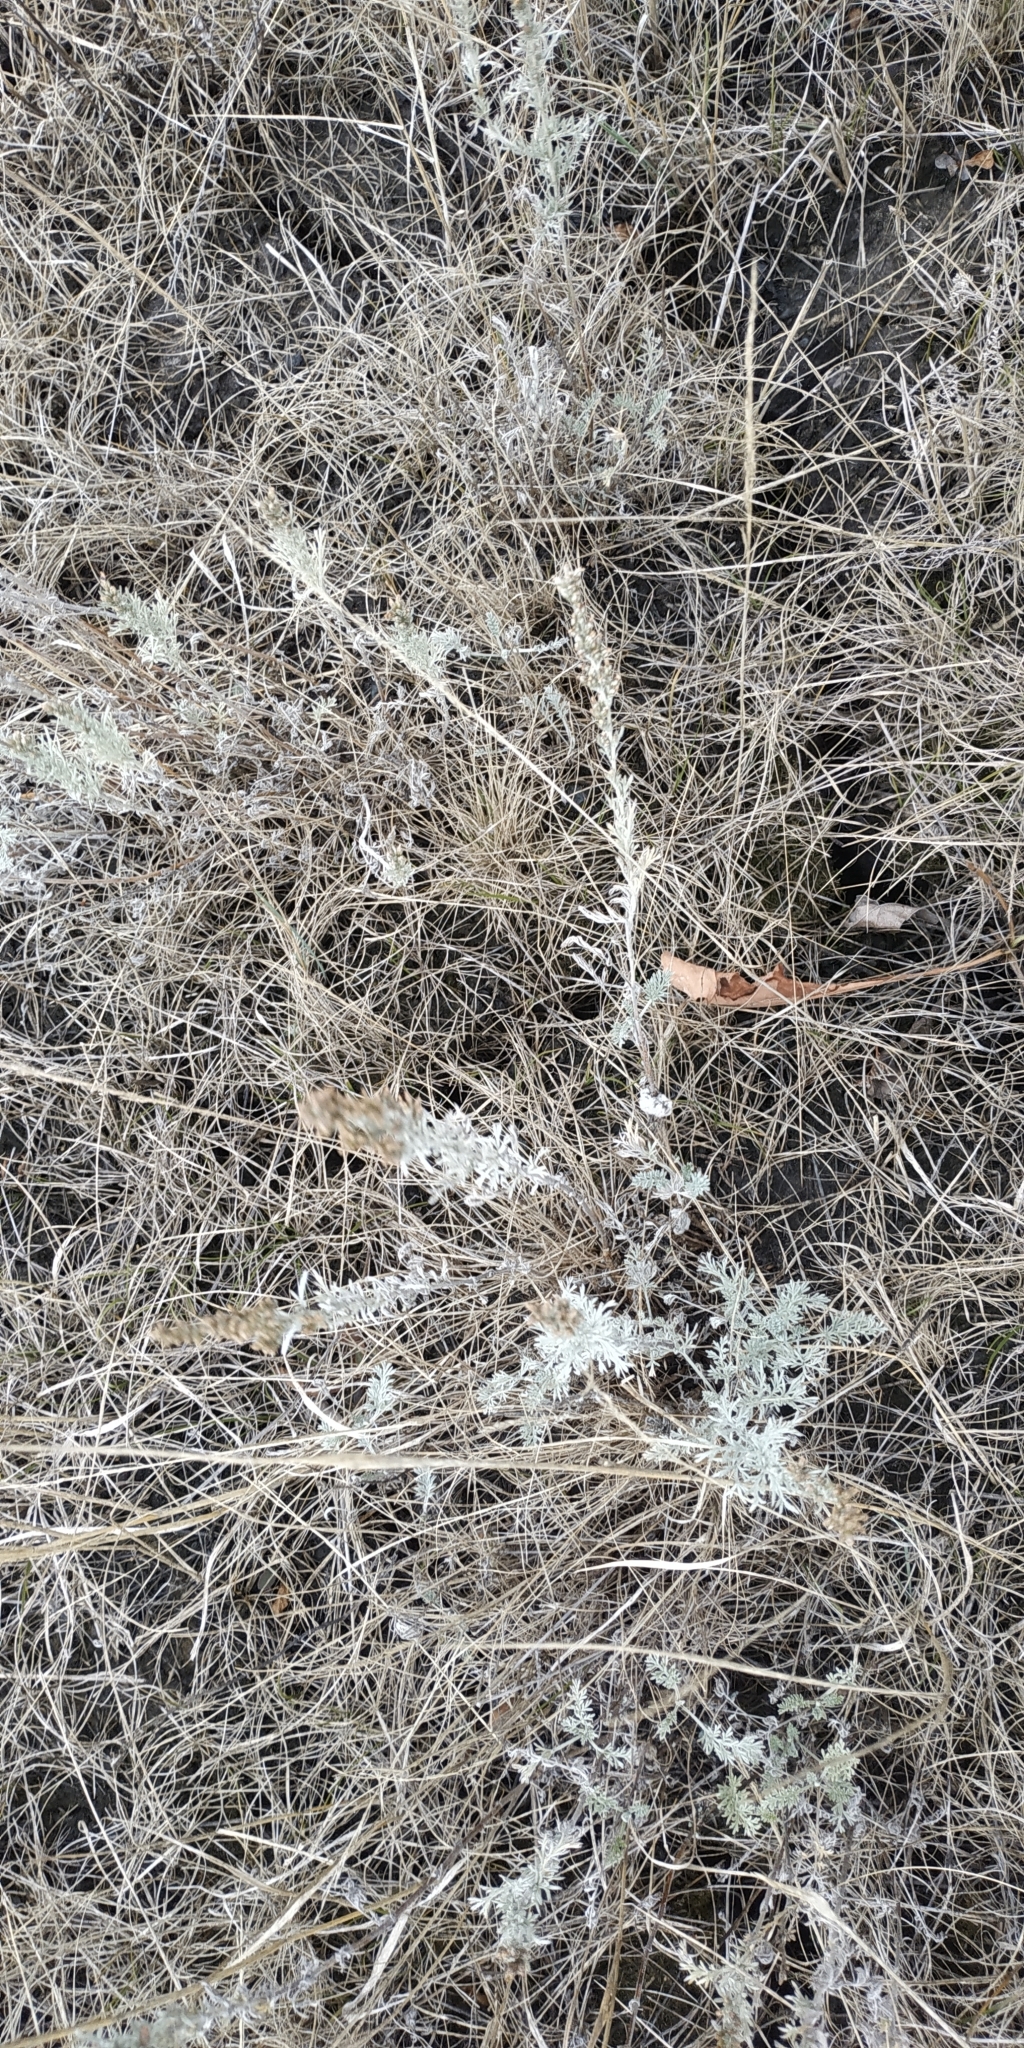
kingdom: Plantae
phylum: Tracheophyta
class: Magnoliopsida
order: Asterales
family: Asteraceae
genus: Artemisia
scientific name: Artemisia nitrosa
